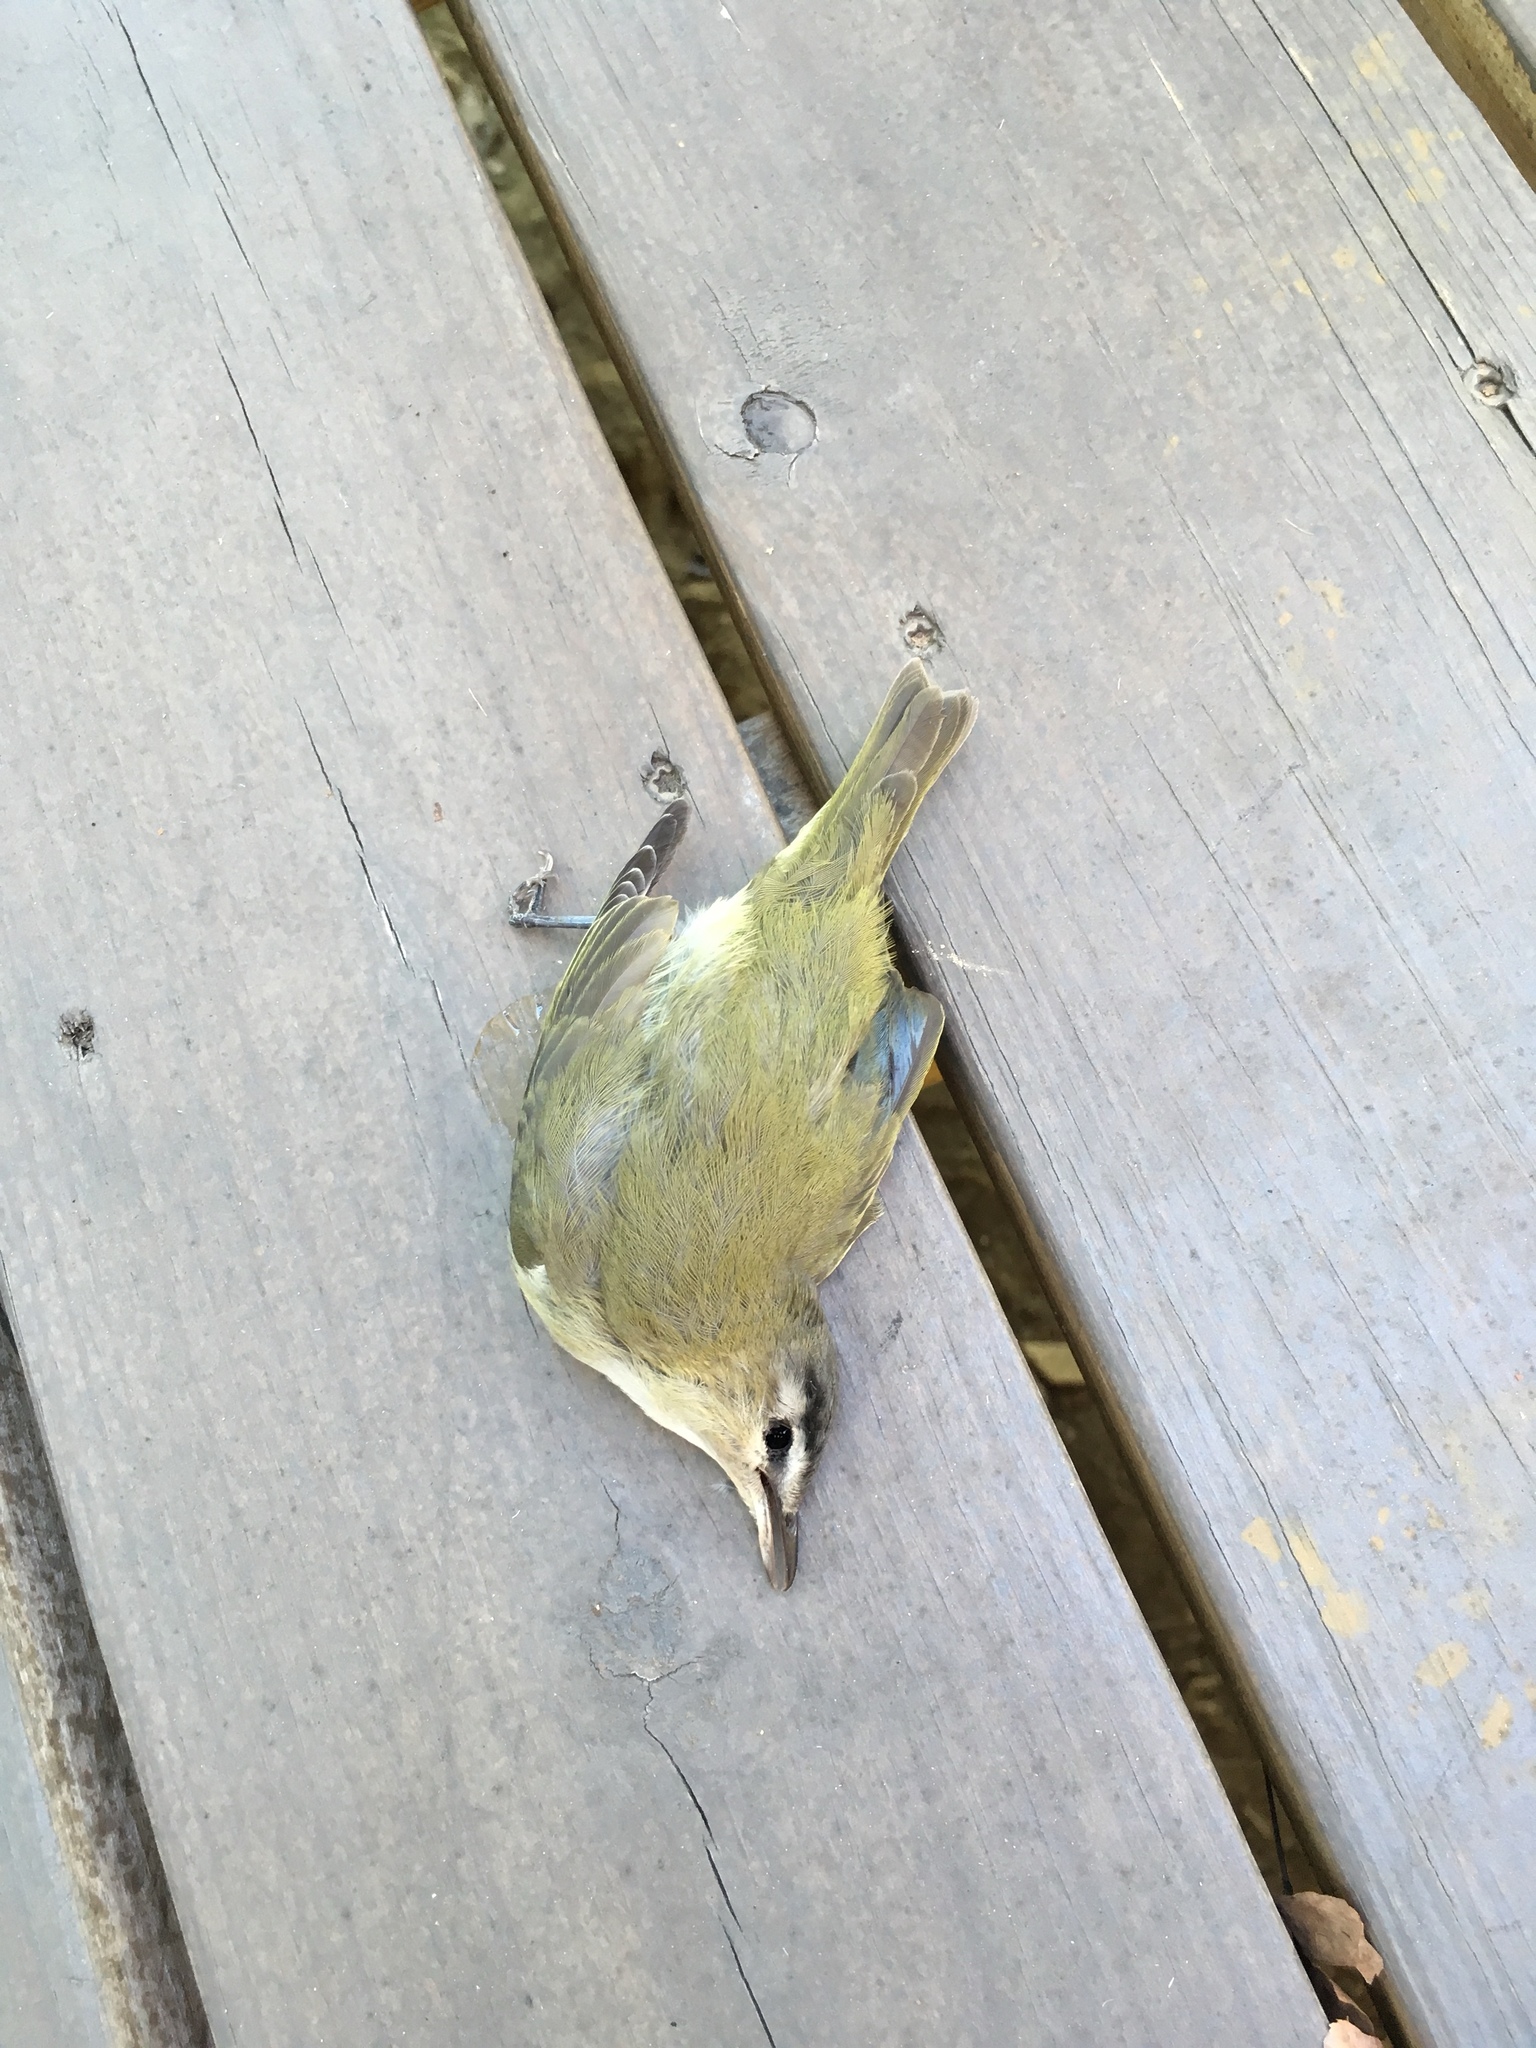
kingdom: Animalia
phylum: Chordata
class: Aves
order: Passeriformes
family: Vireonidae
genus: Vireo
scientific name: Vireo olivaceus
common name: Red-eyed vireo
